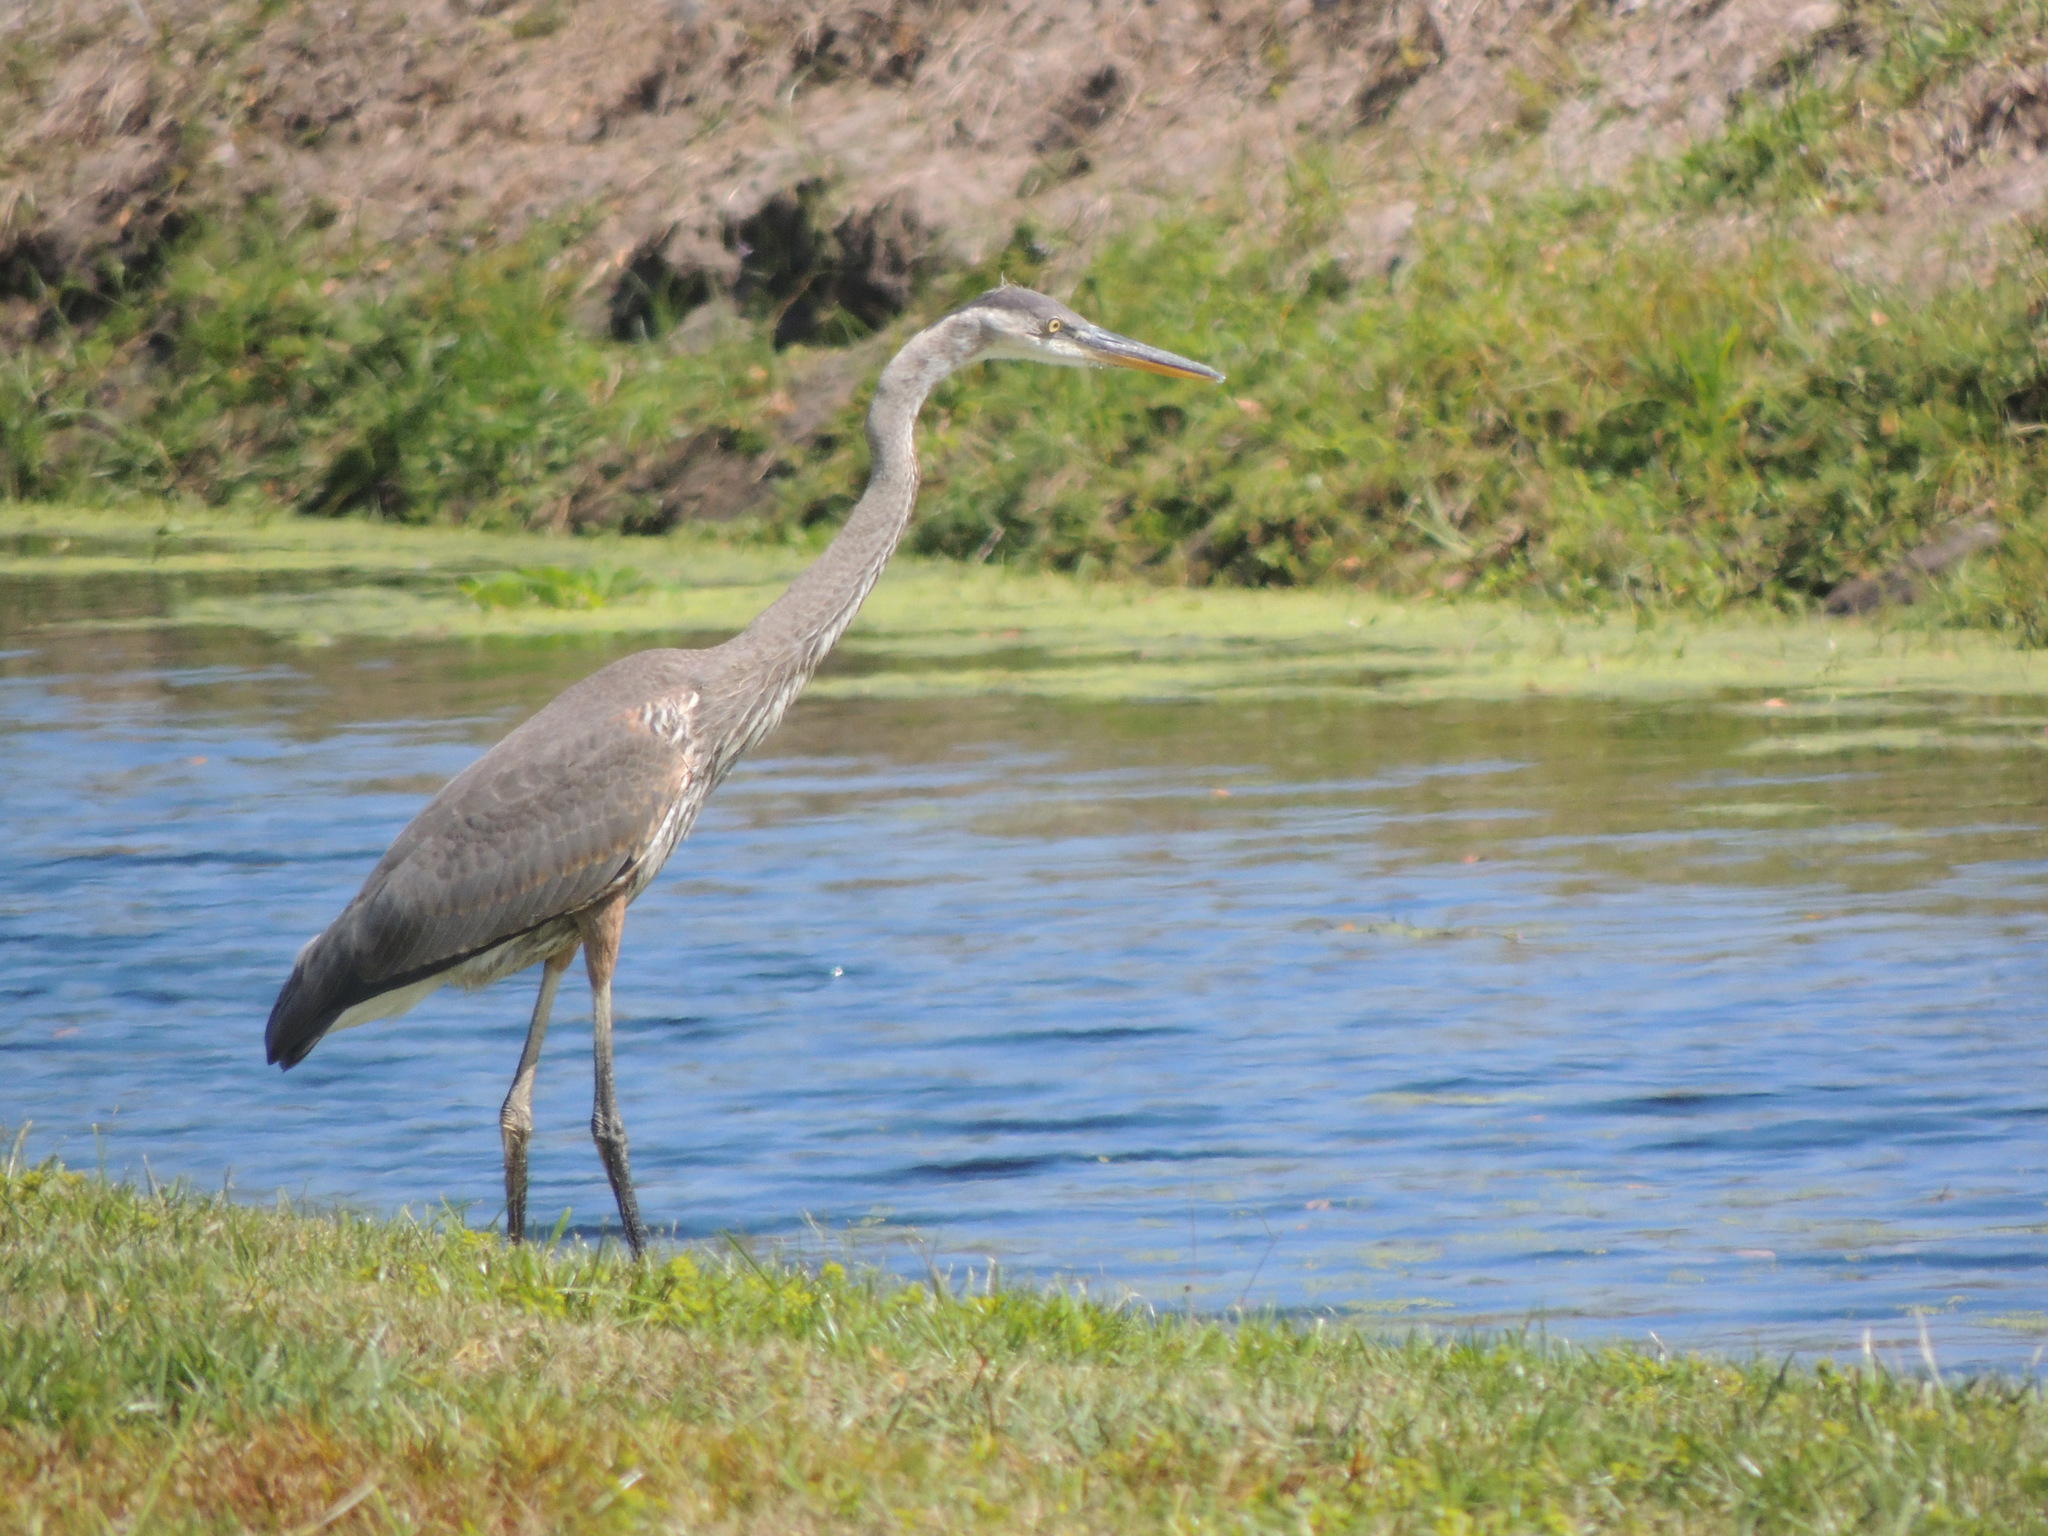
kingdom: Animalia
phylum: Chordata
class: Aves
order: Pelecaniformes
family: Ardeidae
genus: Ardea
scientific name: Ardea herodias
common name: Great blue heron
